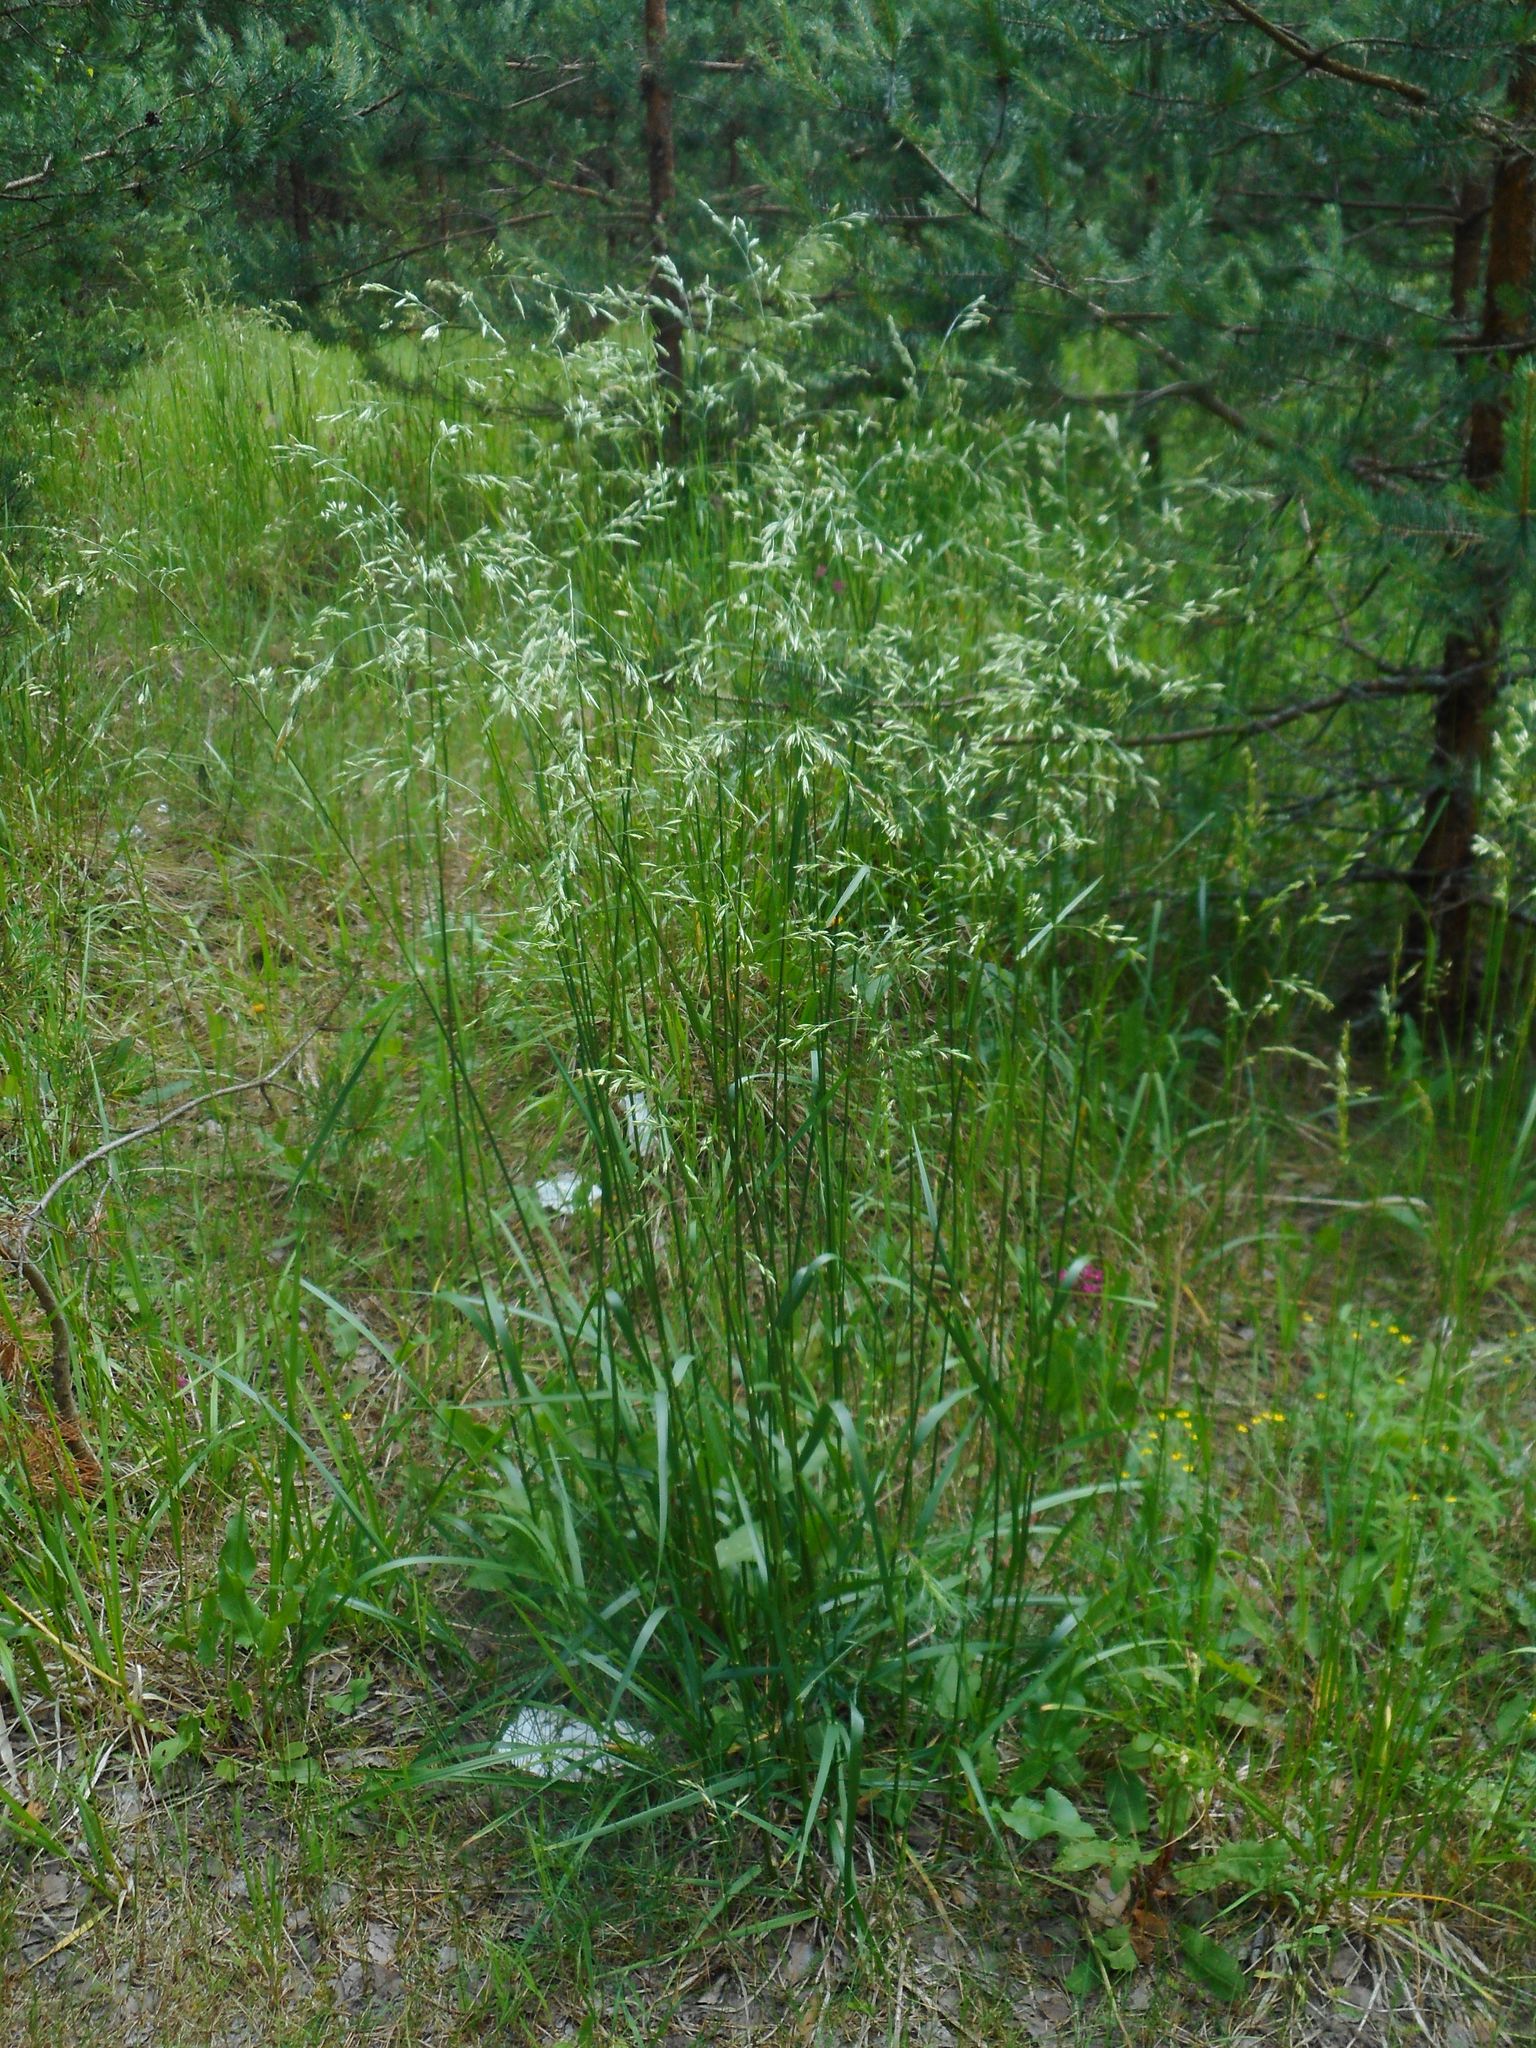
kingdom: Plantae
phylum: Tracheophyta
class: Liliopsida
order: Poales
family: Poaceae
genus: Lolium
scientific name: Lolium arundinaceum
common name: Reed fescue
